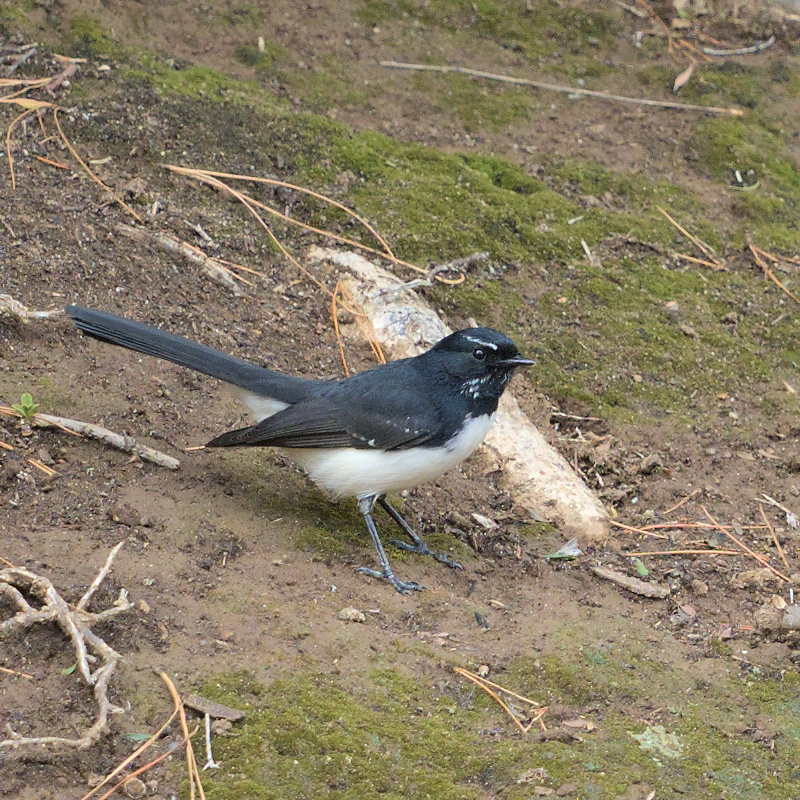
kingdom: Animalia
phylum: Chordata
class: Aves
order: Passeriformes
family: Rhipiduridae
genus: Rhipidura
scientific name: Rhipidura leucophrys
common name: Willie wagtail
